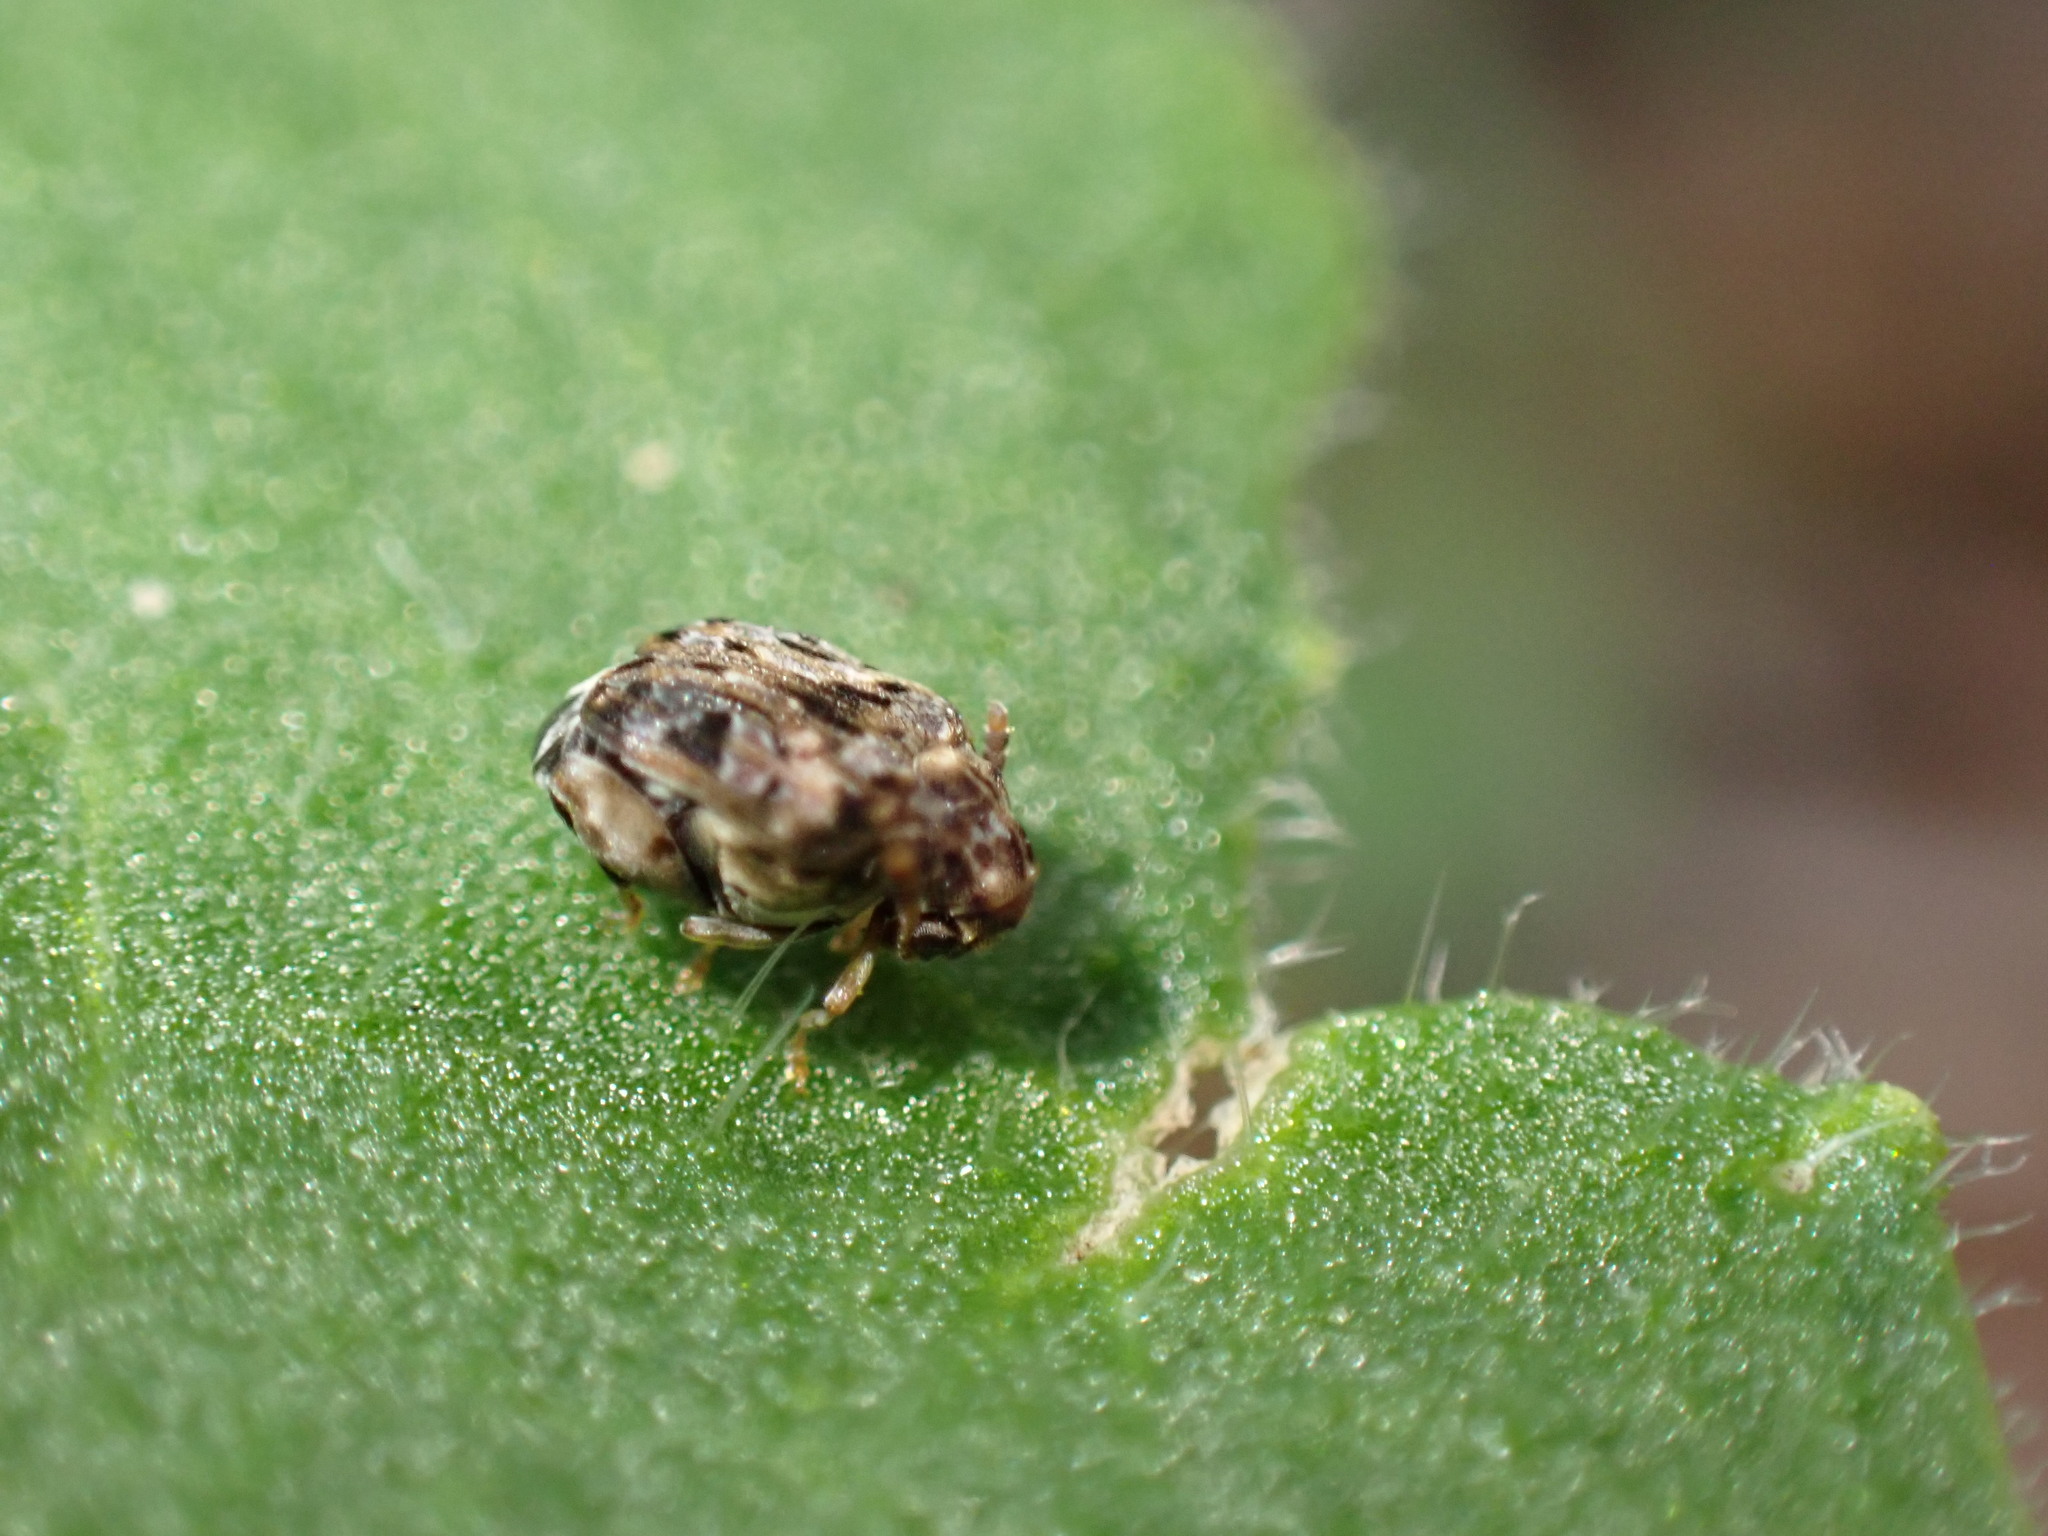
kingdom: Animalia
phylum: Arthropoda
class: Insecta
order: Coleoptera
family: Chrysomelidae
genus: Gibbobruchus
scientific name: Gibbobruchus mimus
